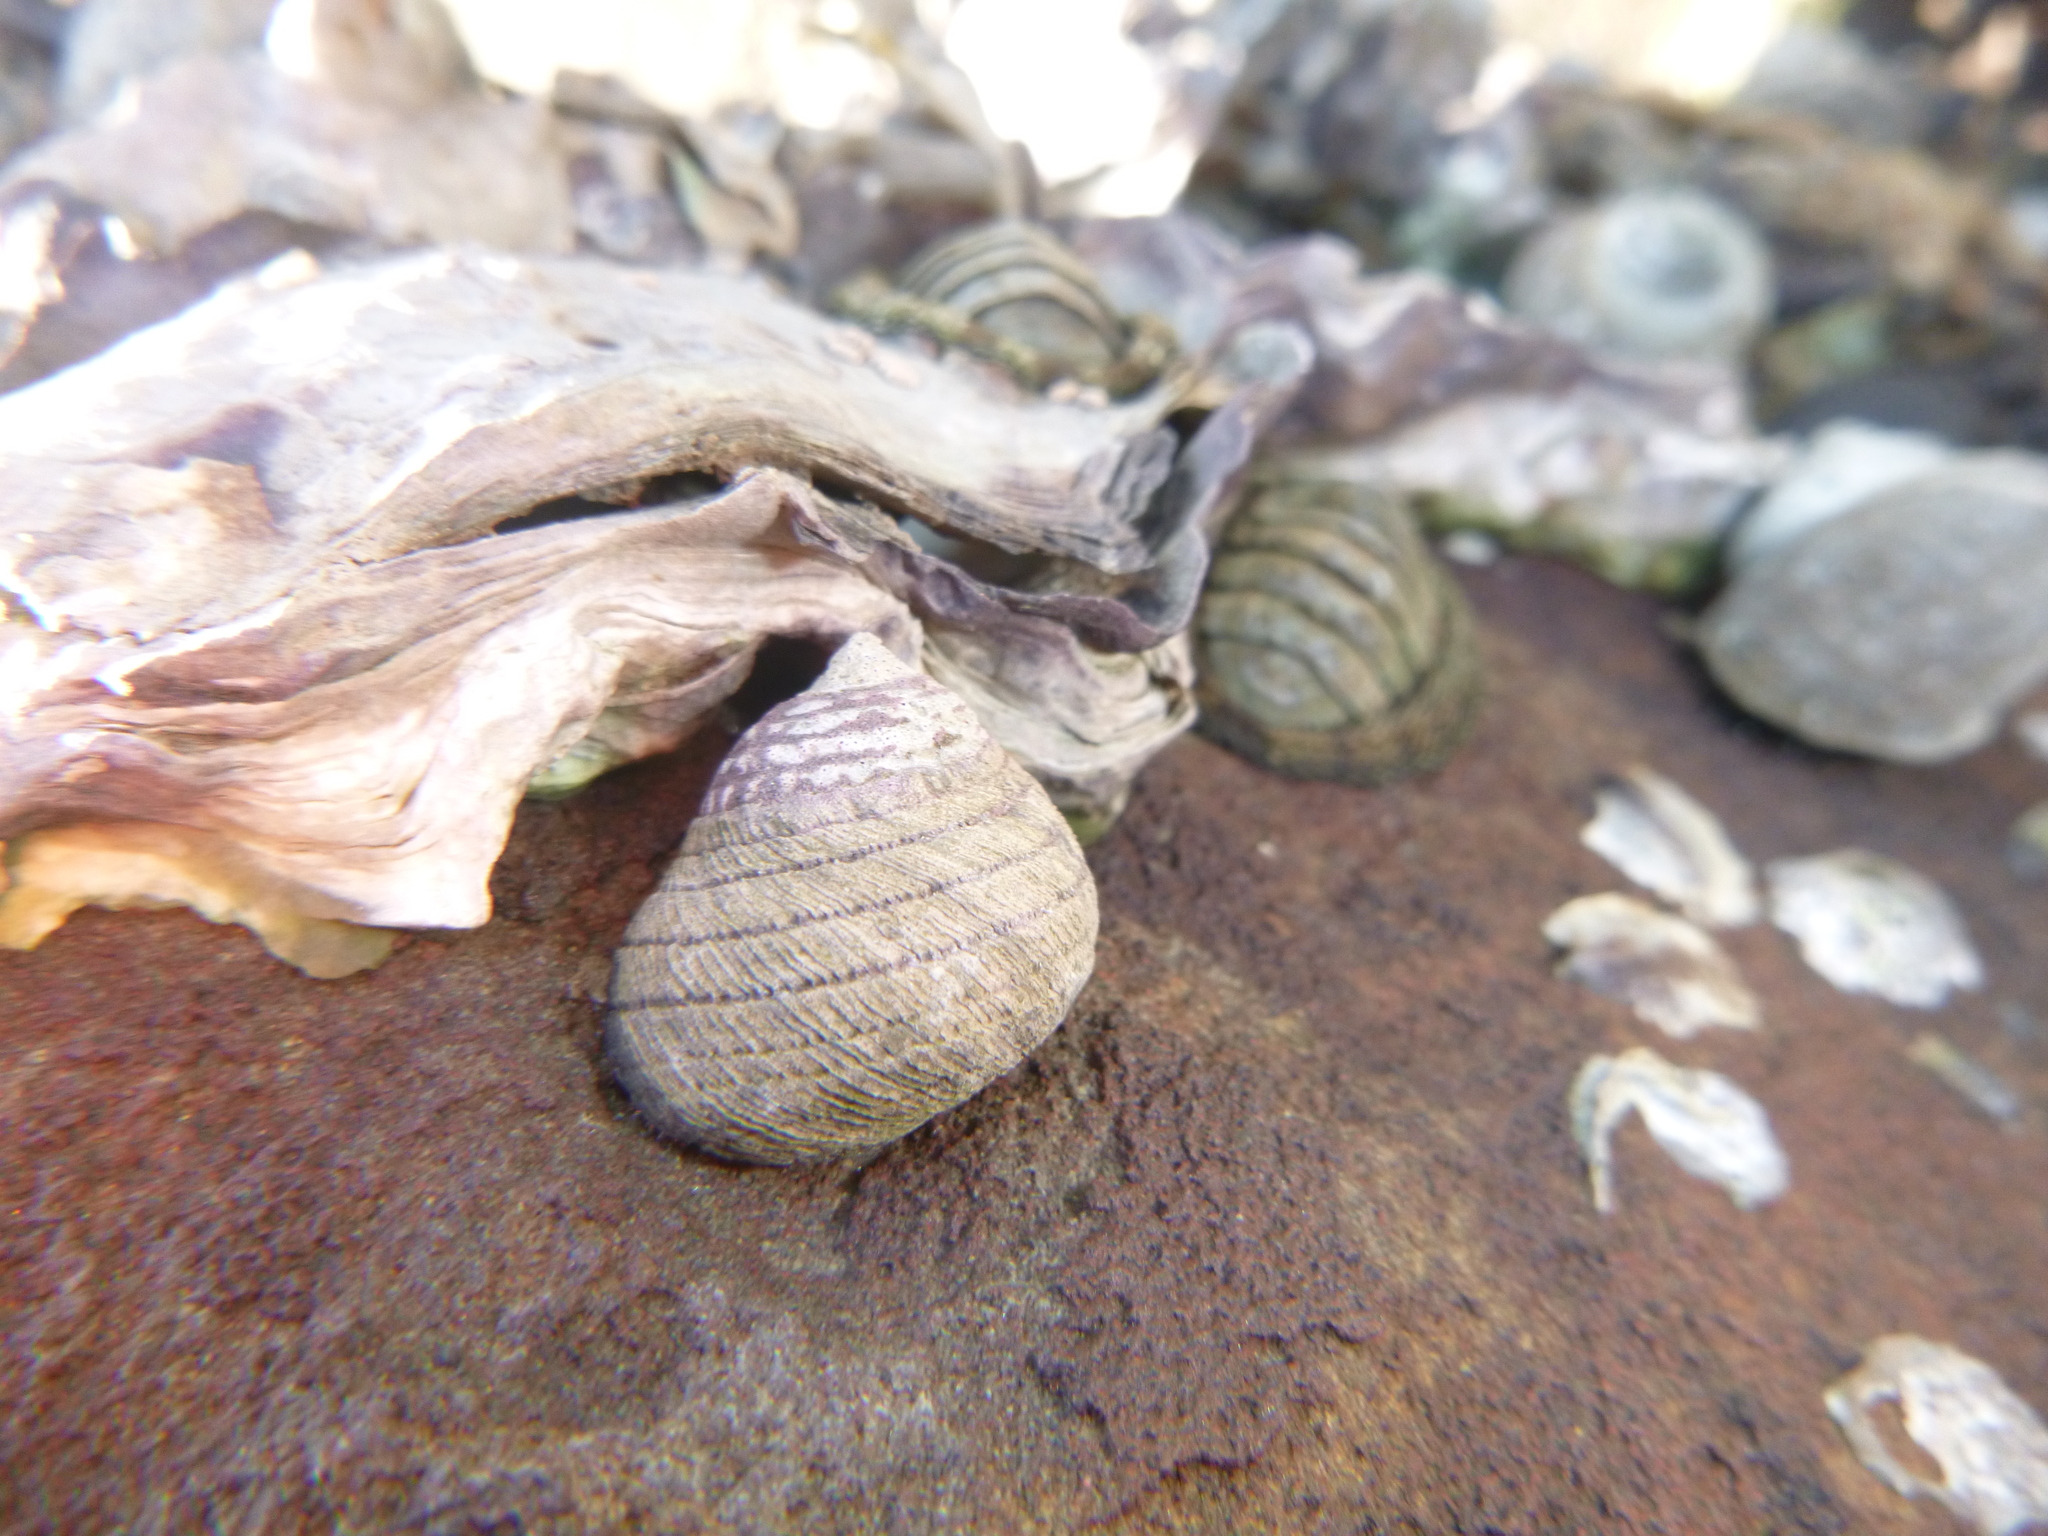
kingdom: Animalia
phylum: Mollusca
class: Gastropoda
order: Trochida
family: Trochidae
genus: Diloma
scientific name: Diloma aethiops
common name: Scorched monodont
